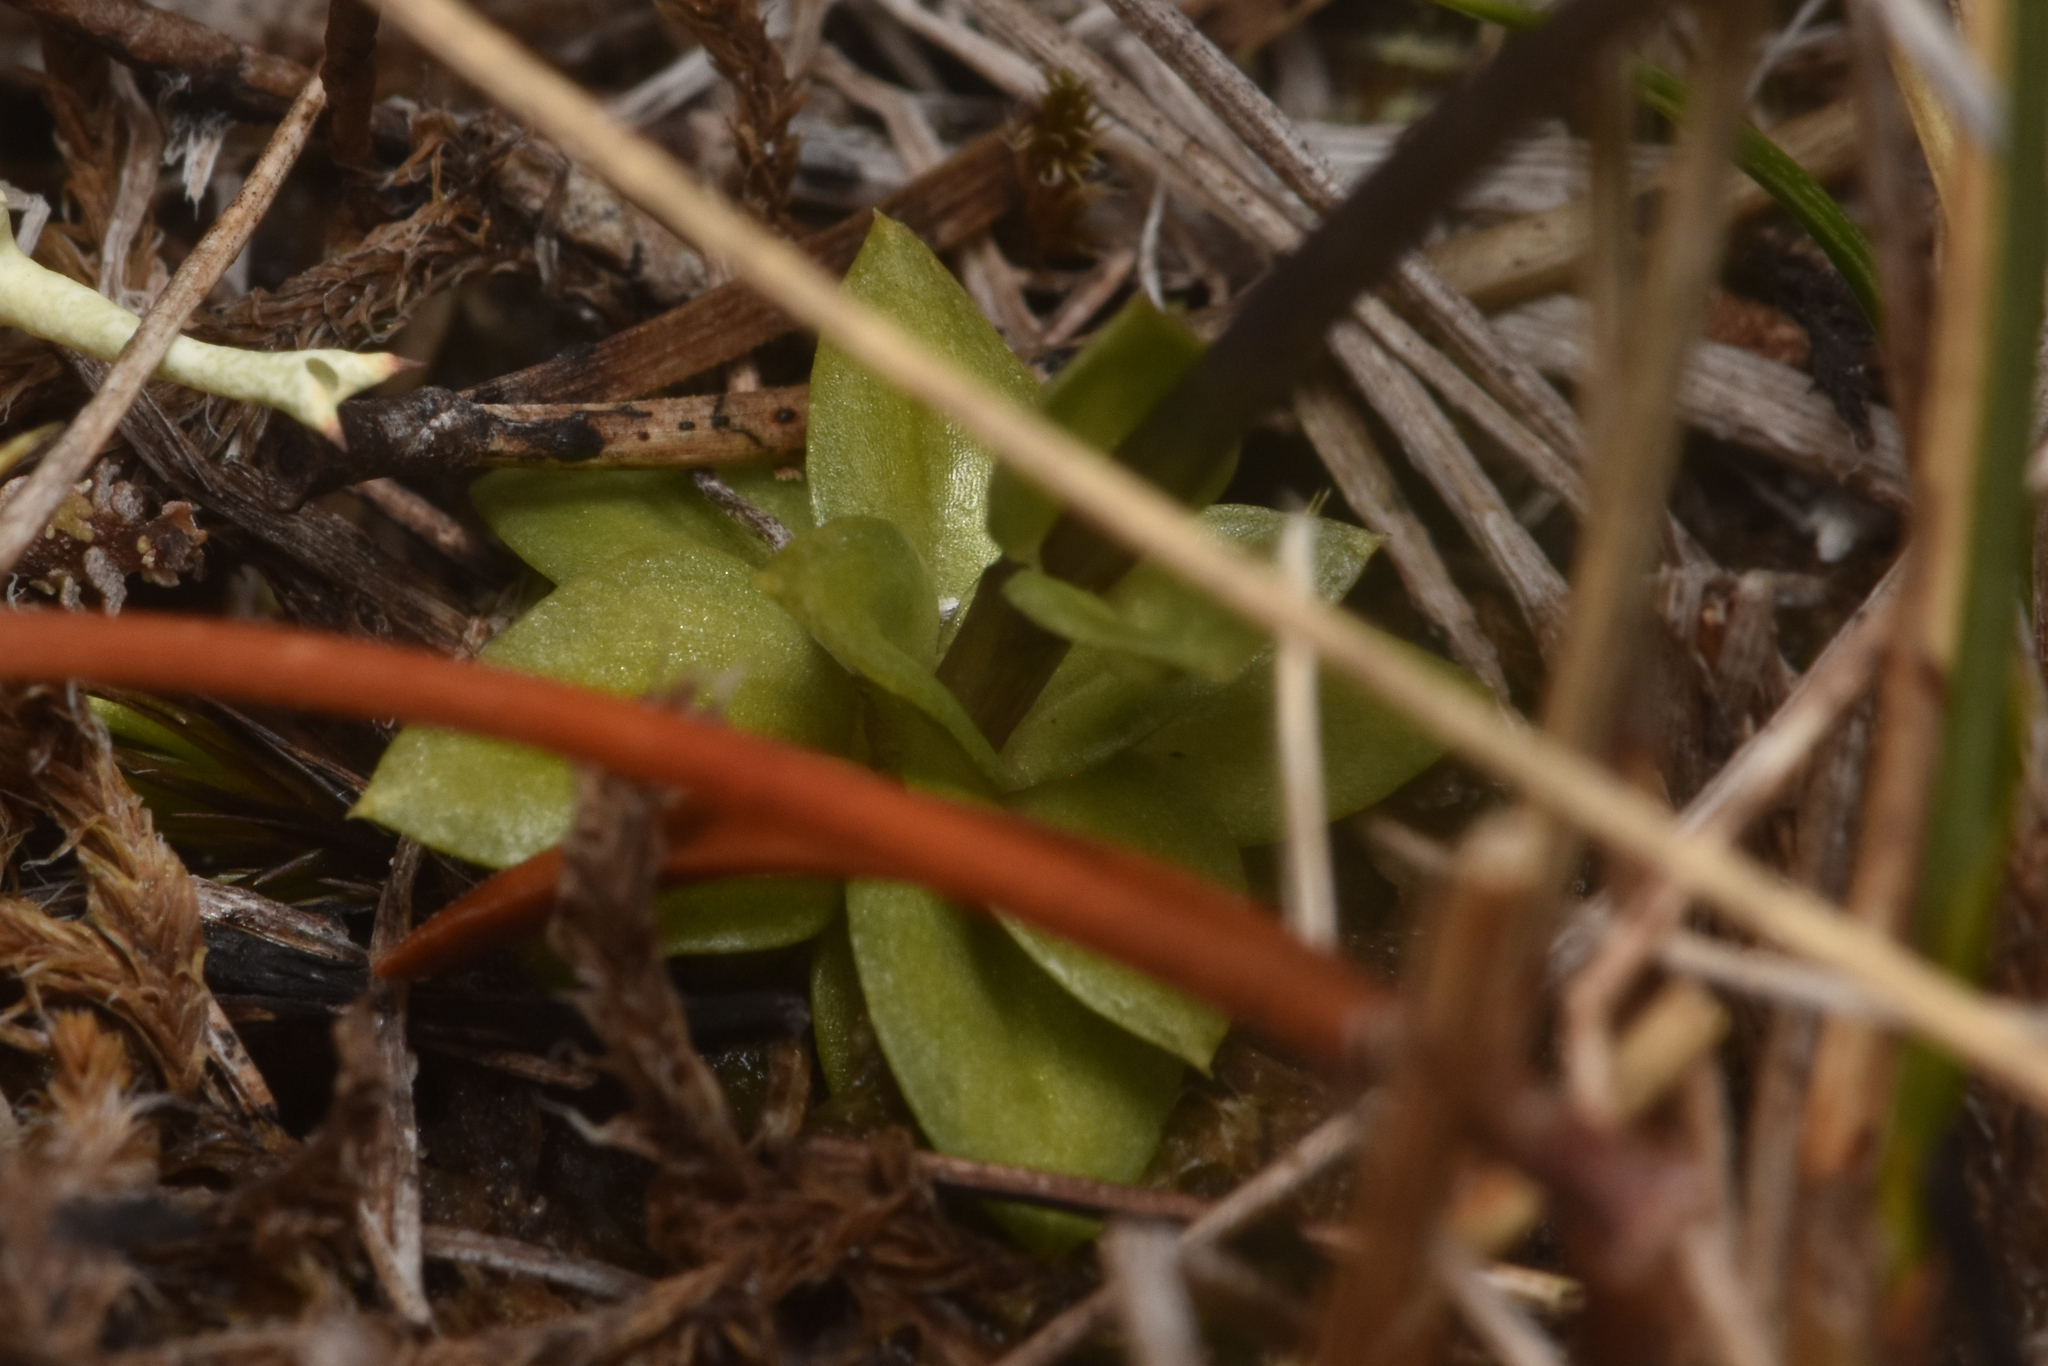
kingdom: Plantae
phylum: Tracheophyta
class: Magnoliopsida
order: Gentianales
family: Gentianaceae
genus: Gentiana
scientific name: Gentiana douglasiana
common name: Swamp gentian
